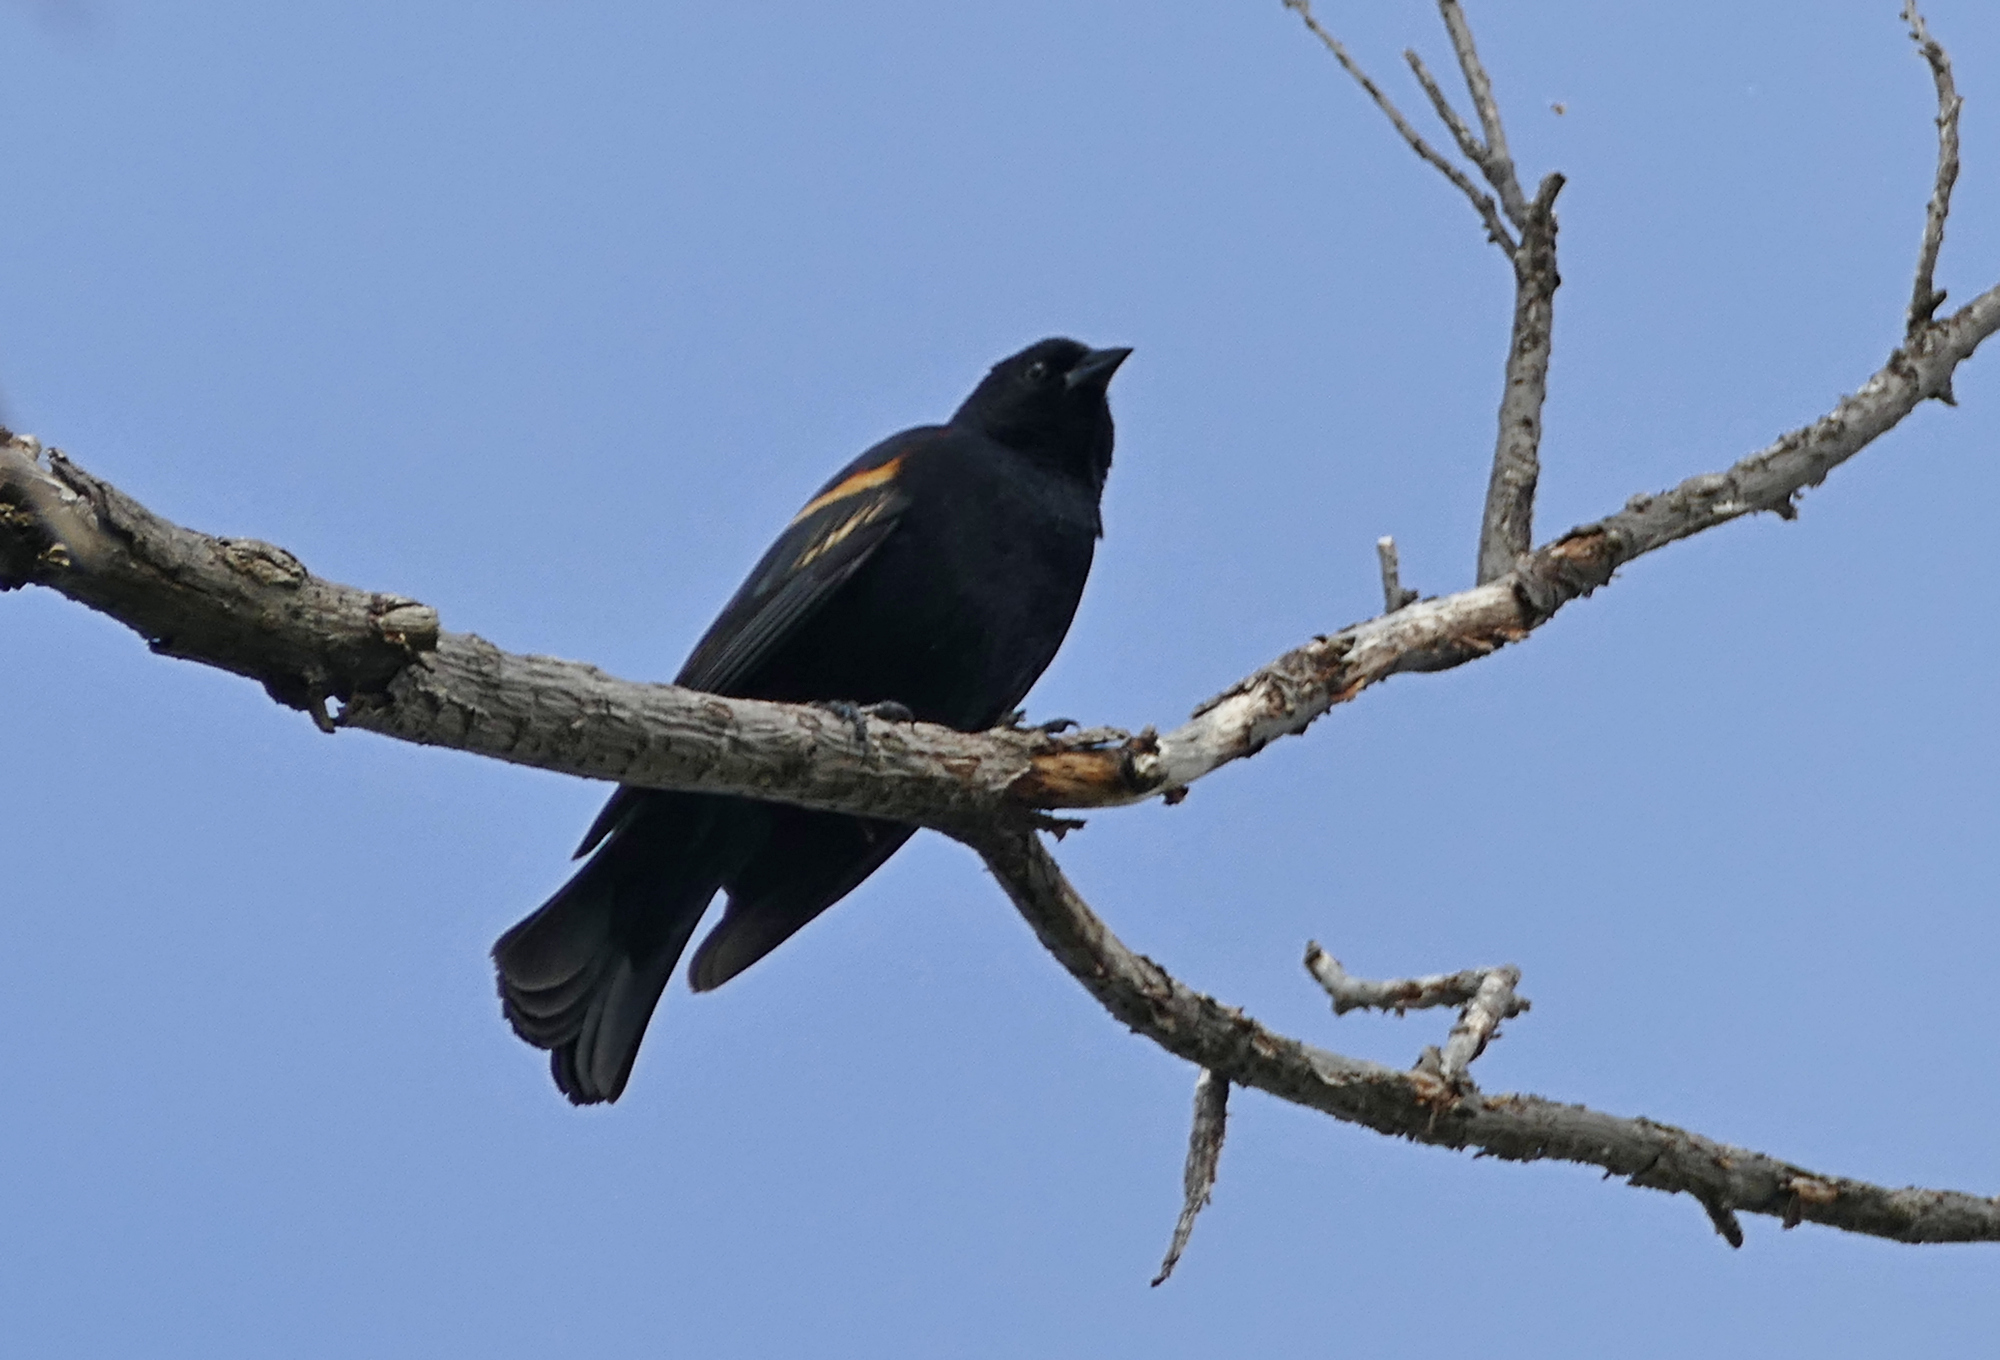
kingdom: Animalia
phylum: Chordata
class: Aves
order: Passeriformes
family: Icteridae
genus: Agelaius
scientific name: Agelaius phoeniceus
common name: Red-winged blackbird
